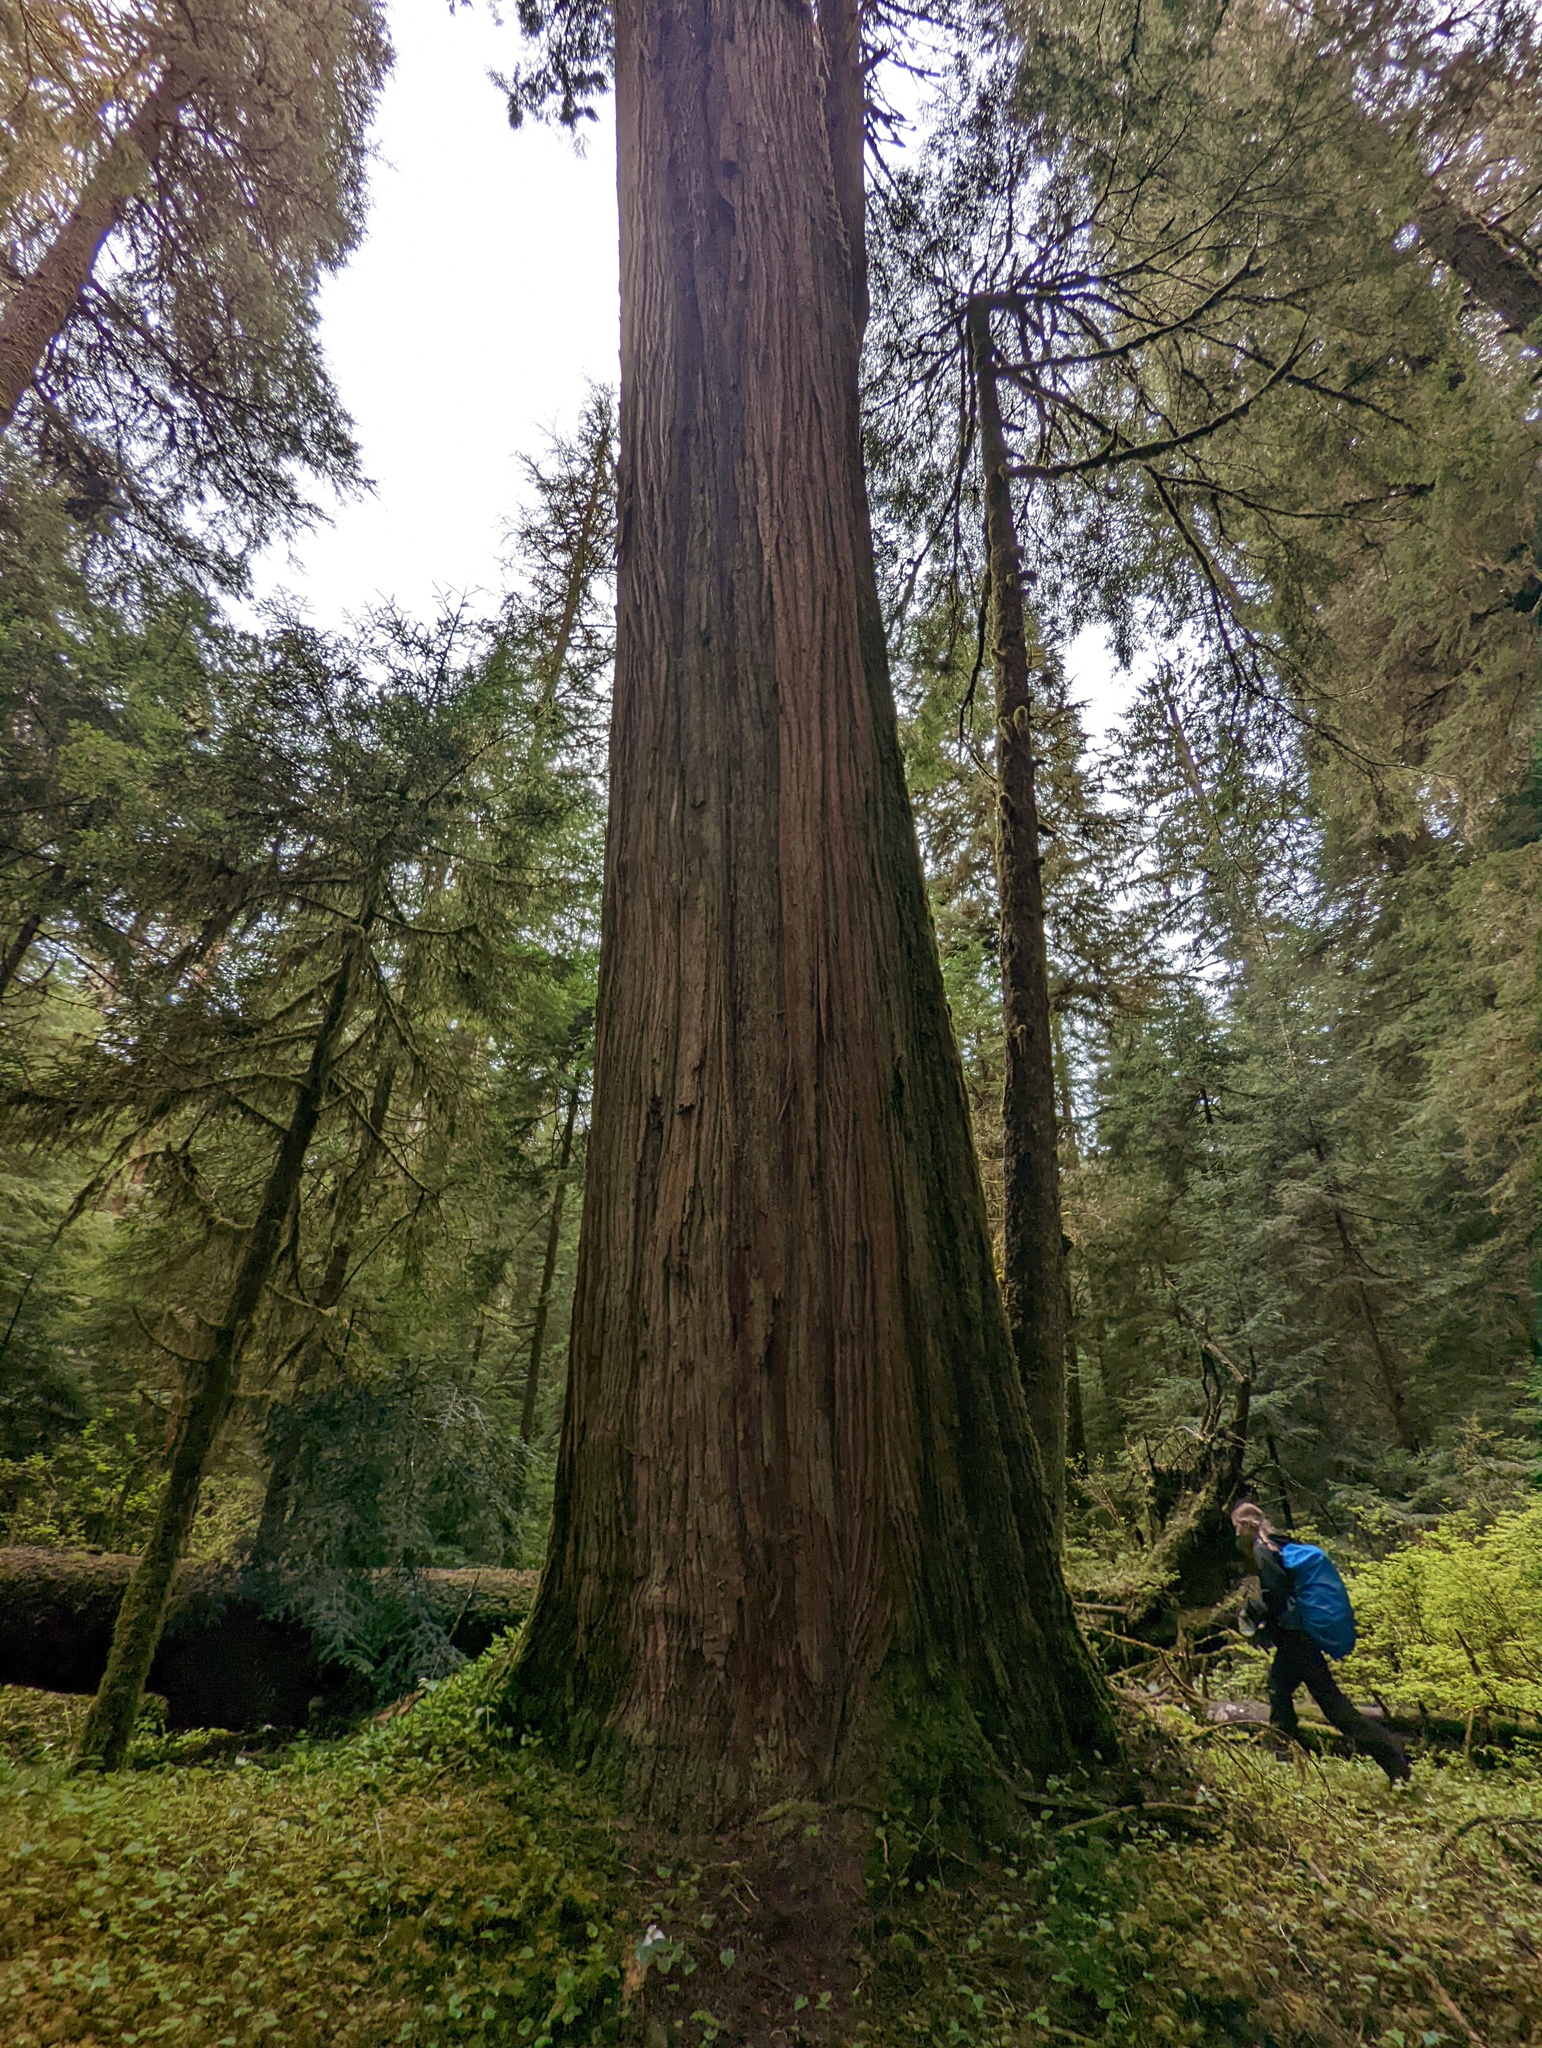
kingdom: Plantae
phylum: Tracheophyta
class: Pinopsida
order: Pinales
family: Cupressaceae
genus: Thuja
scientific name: Thuja plicata
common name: Western red-cedar
